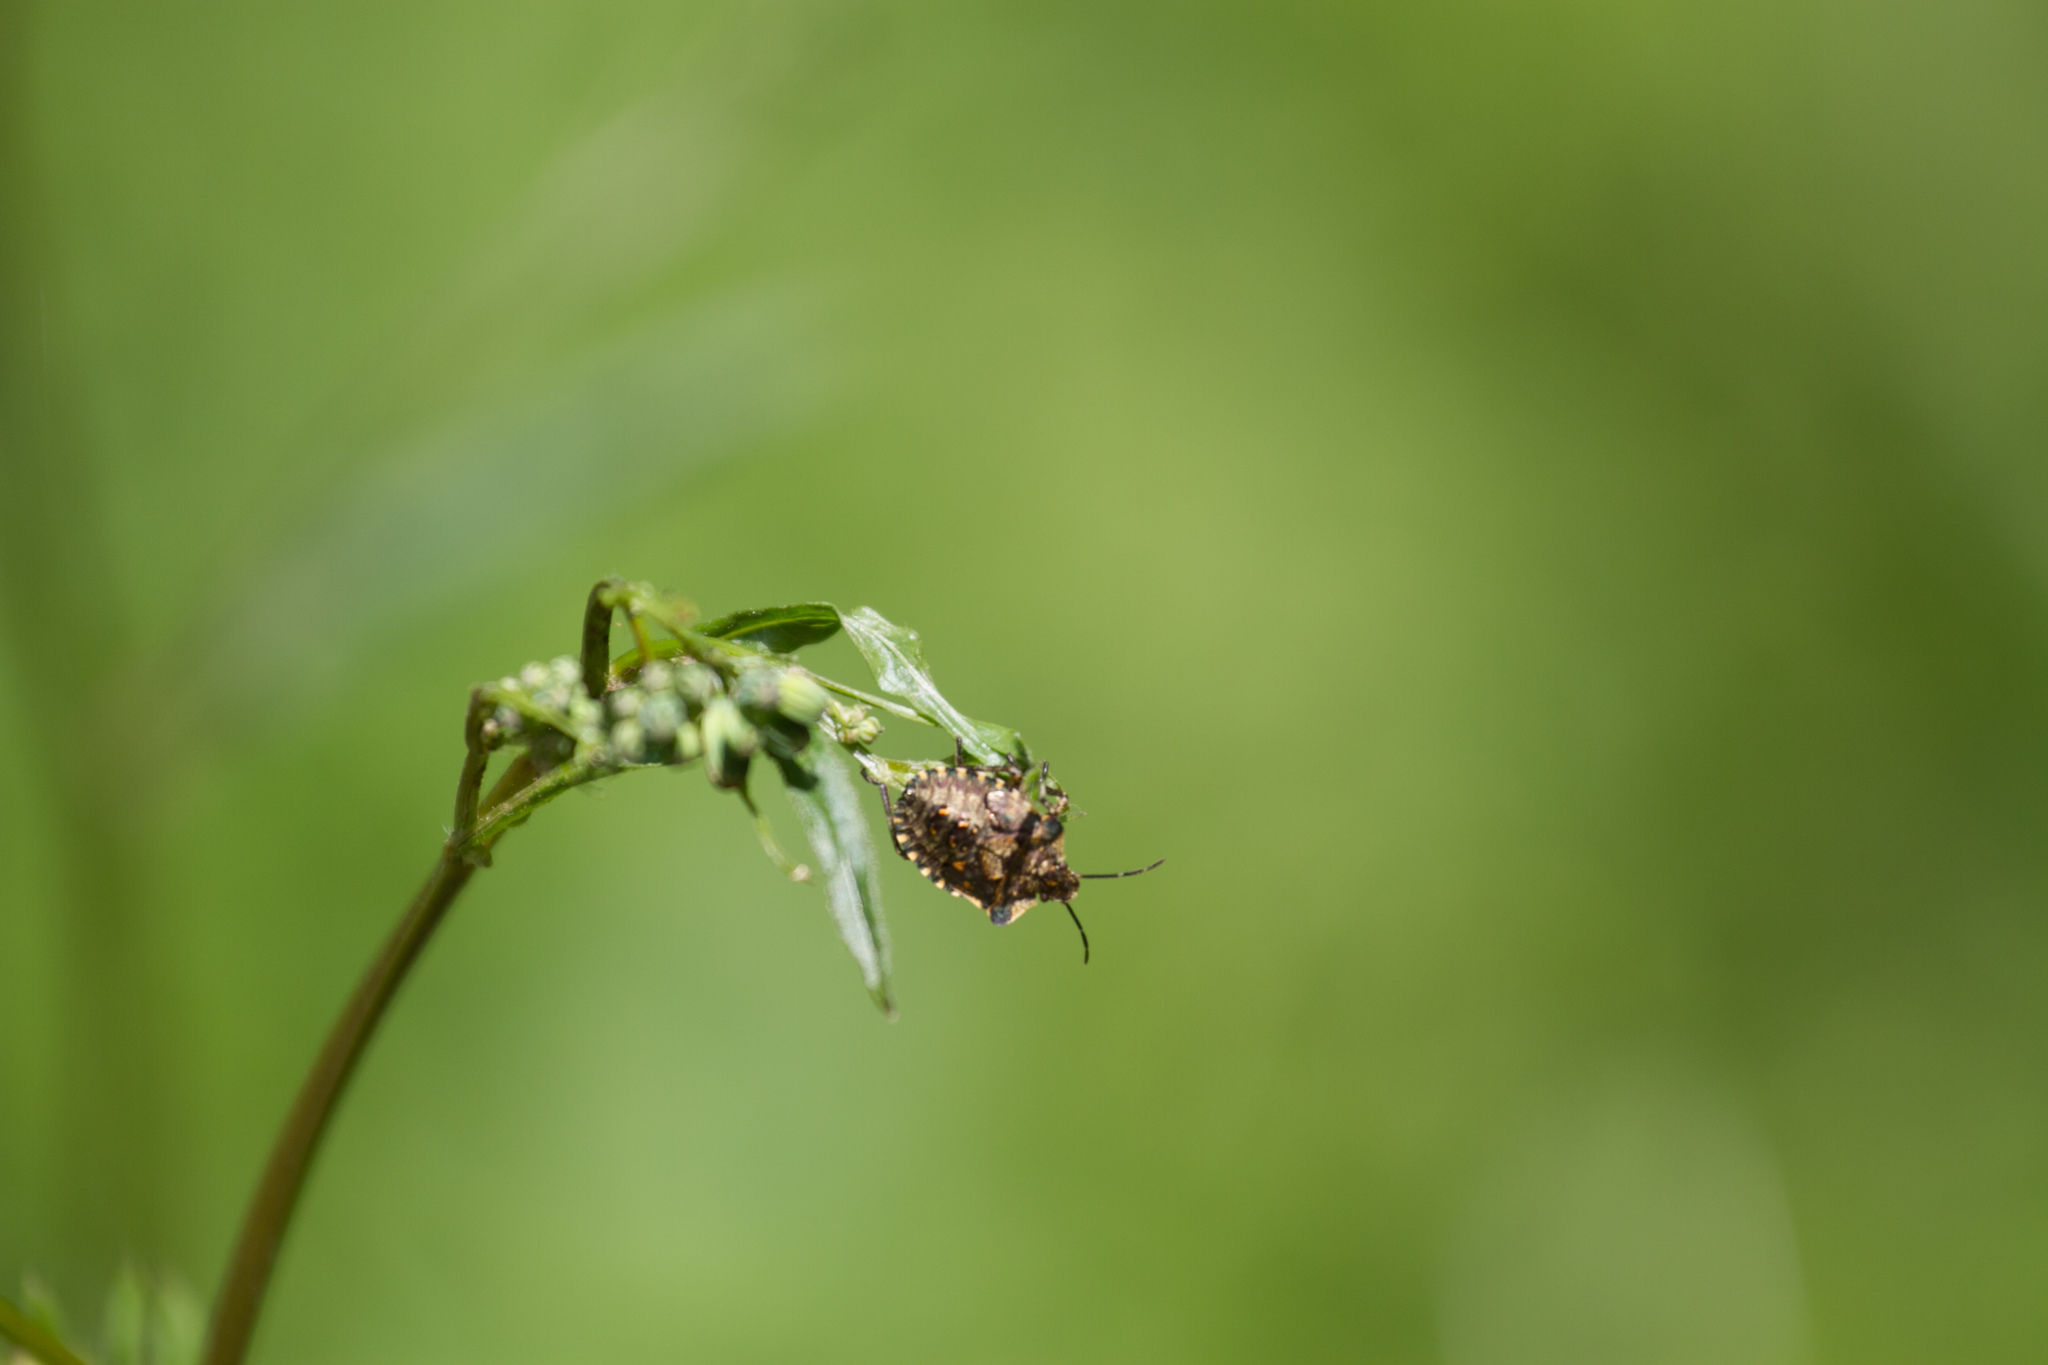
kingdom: Animalia
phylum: Arthropoda
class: Insecta
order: Hemiptera
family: Pentatomidae
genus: Pentatoma
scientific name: Pentatoma rufipes
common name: Forest bug
